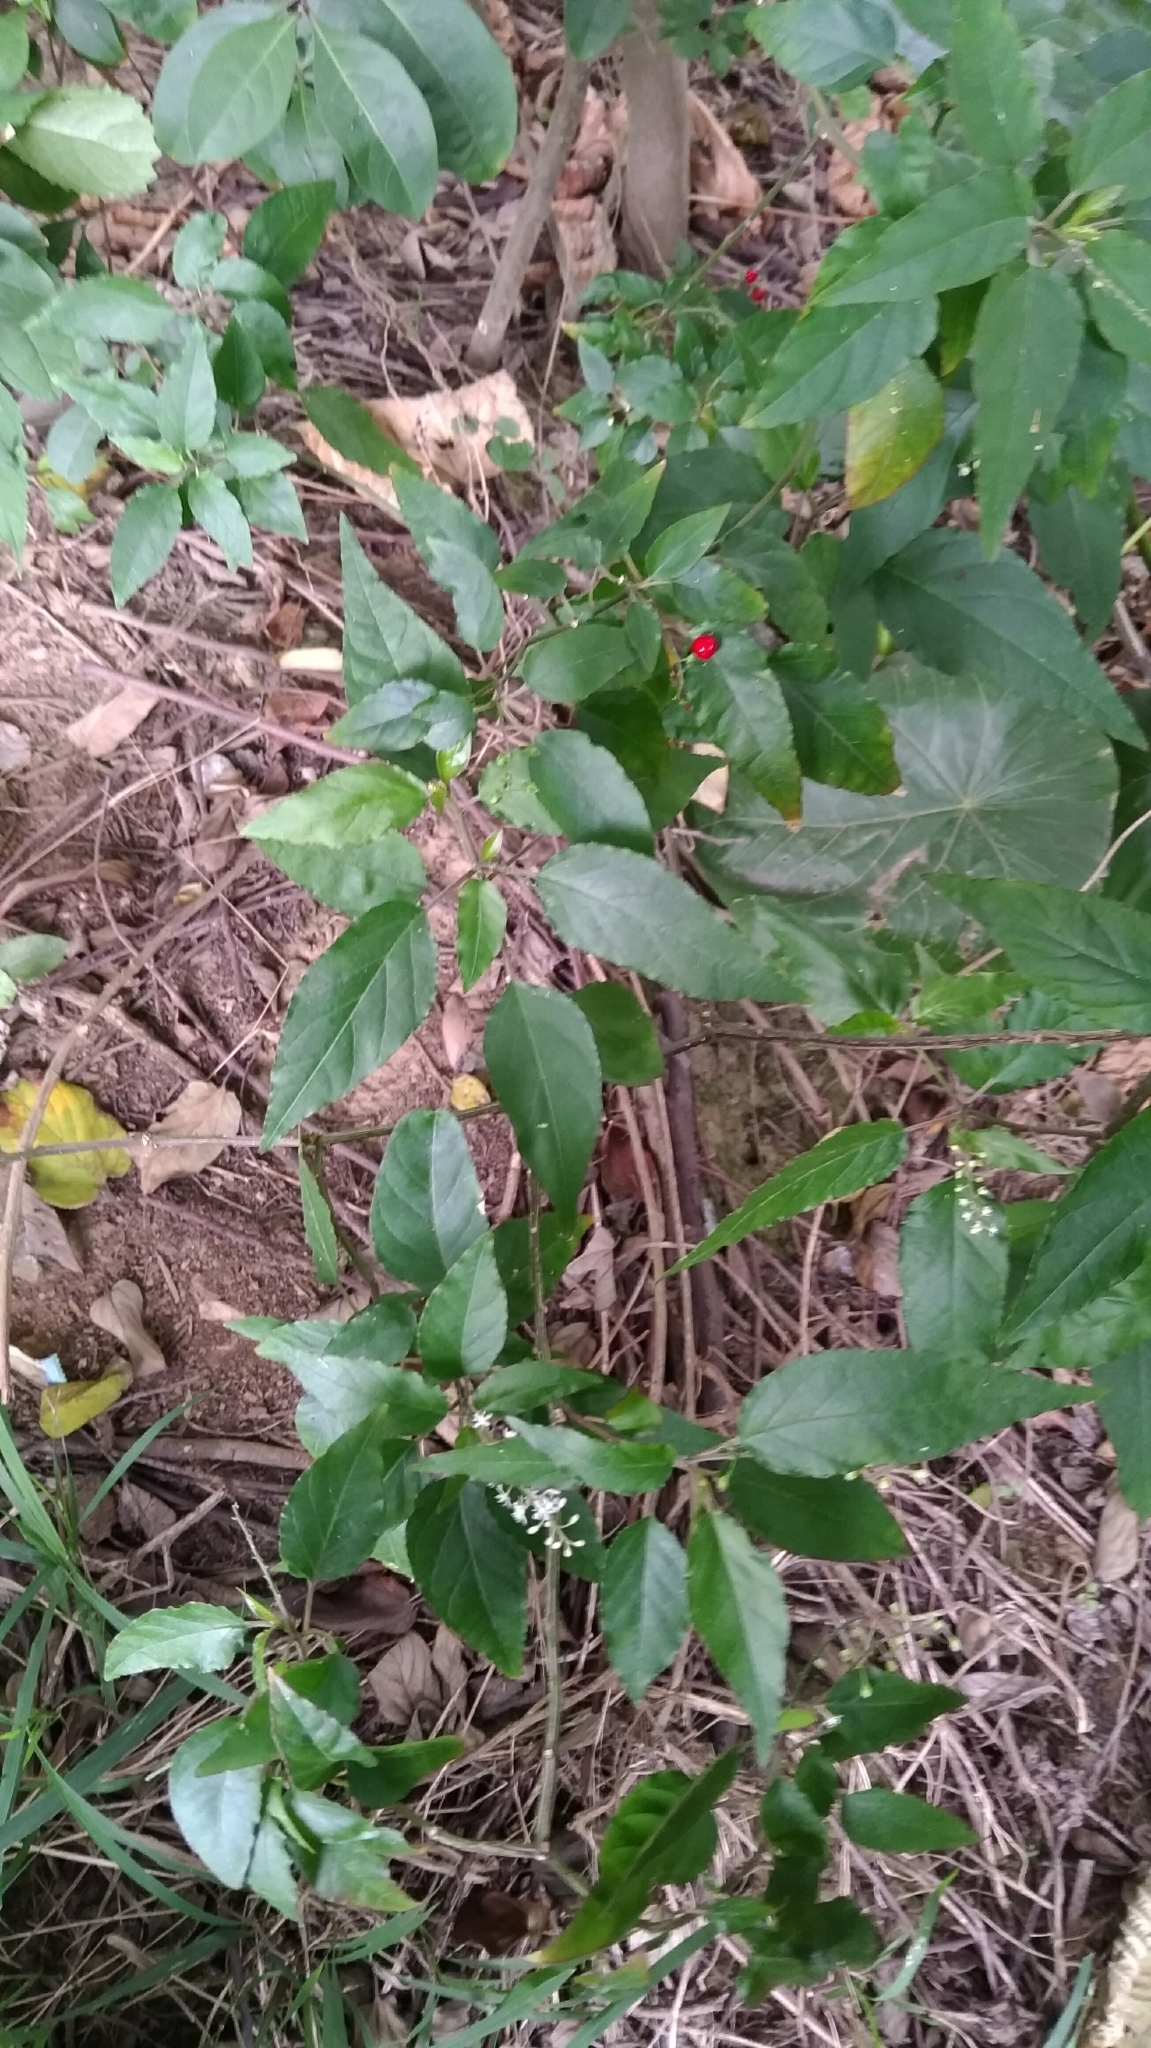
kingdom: Plantae
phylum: Tracheophyta
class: Magnoliopsida
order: Caryophyllales
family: Phytolaccaceae
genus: Rivina
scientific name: Rivina humilis
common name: Rougeplant
